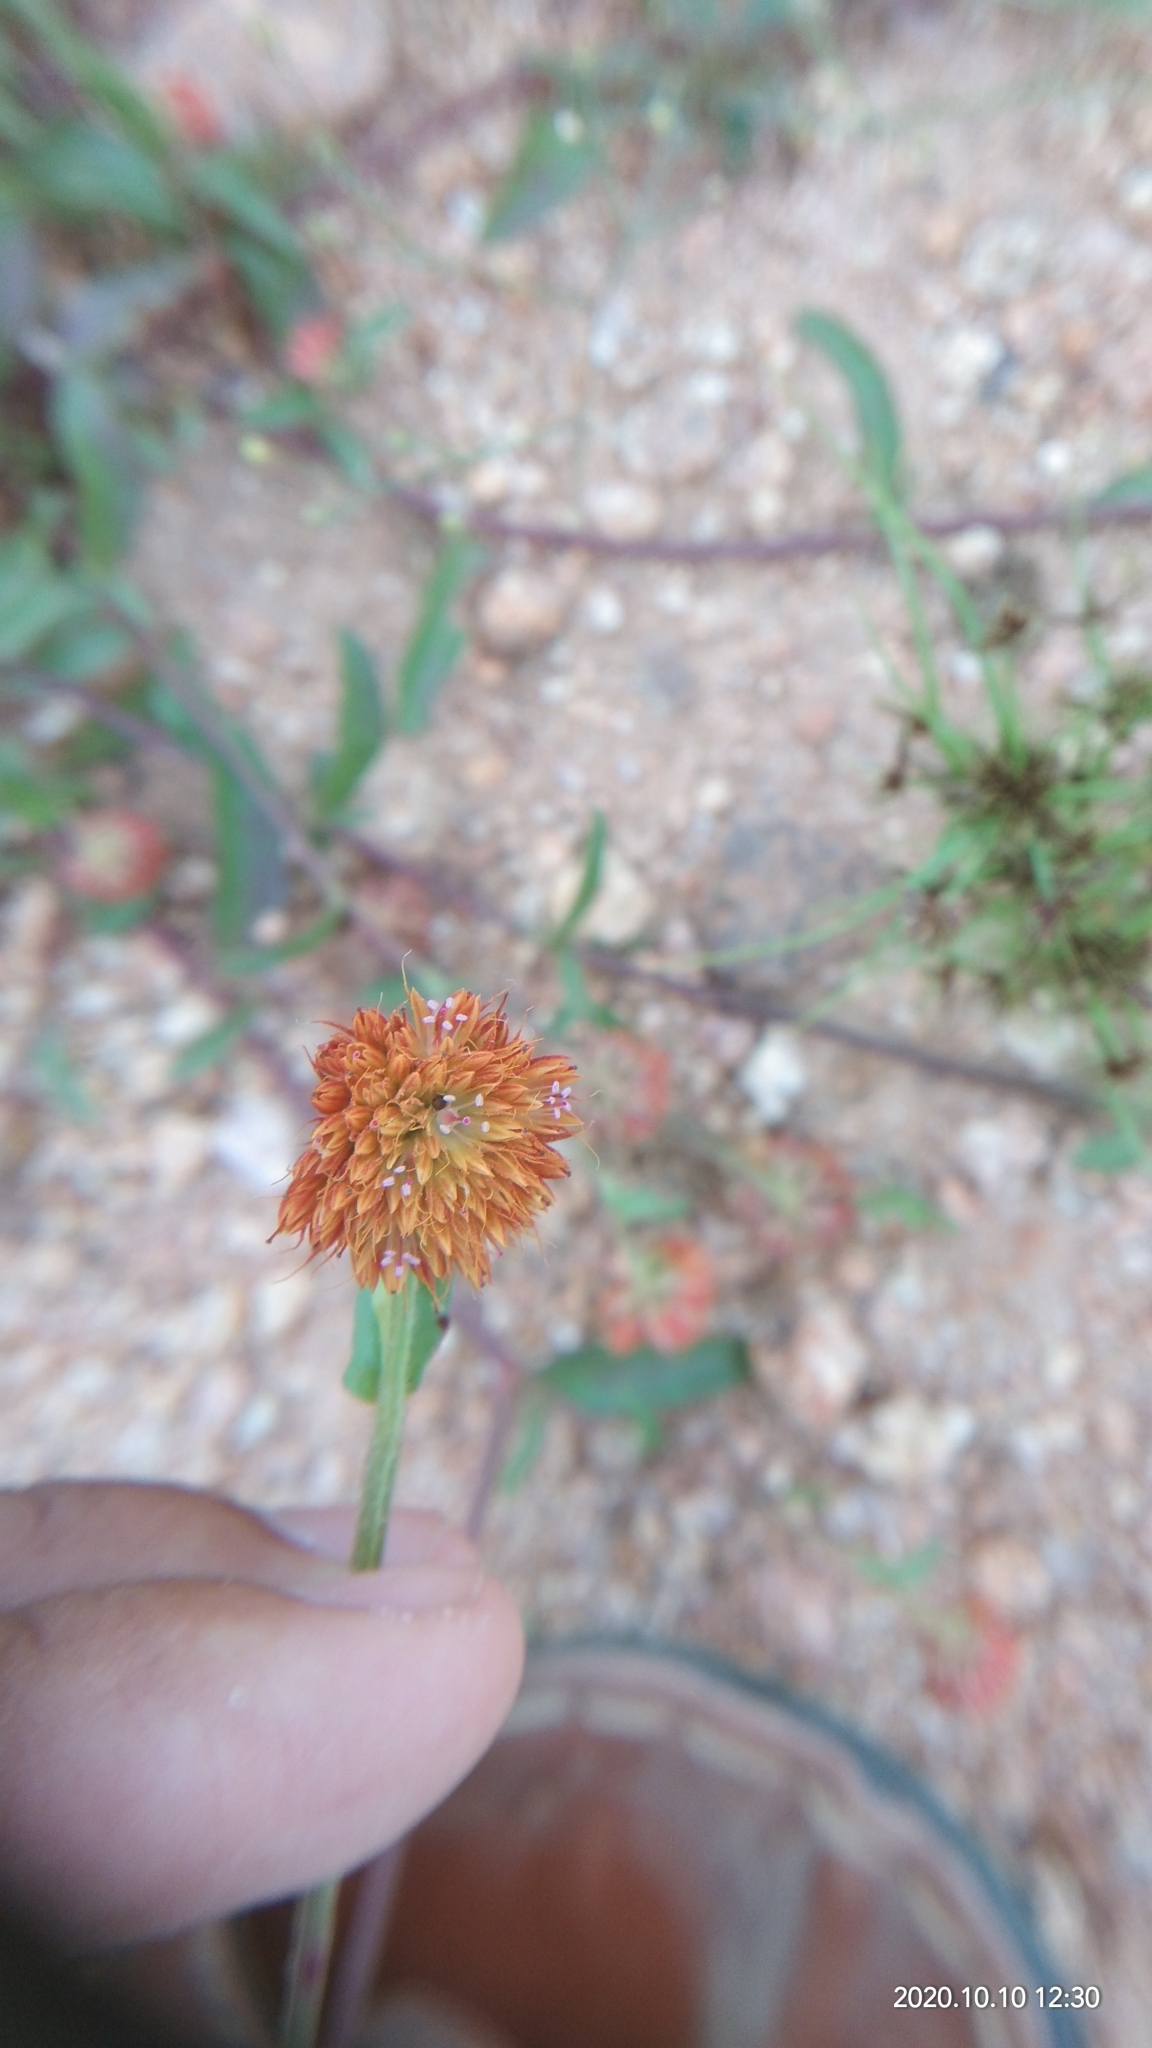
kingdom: Plantae
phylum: Tracheophyta
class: Magnoliopsida
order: Caryophyllales
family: Amaranthaceae
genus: Allmania
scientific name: Allmania nodiflora
